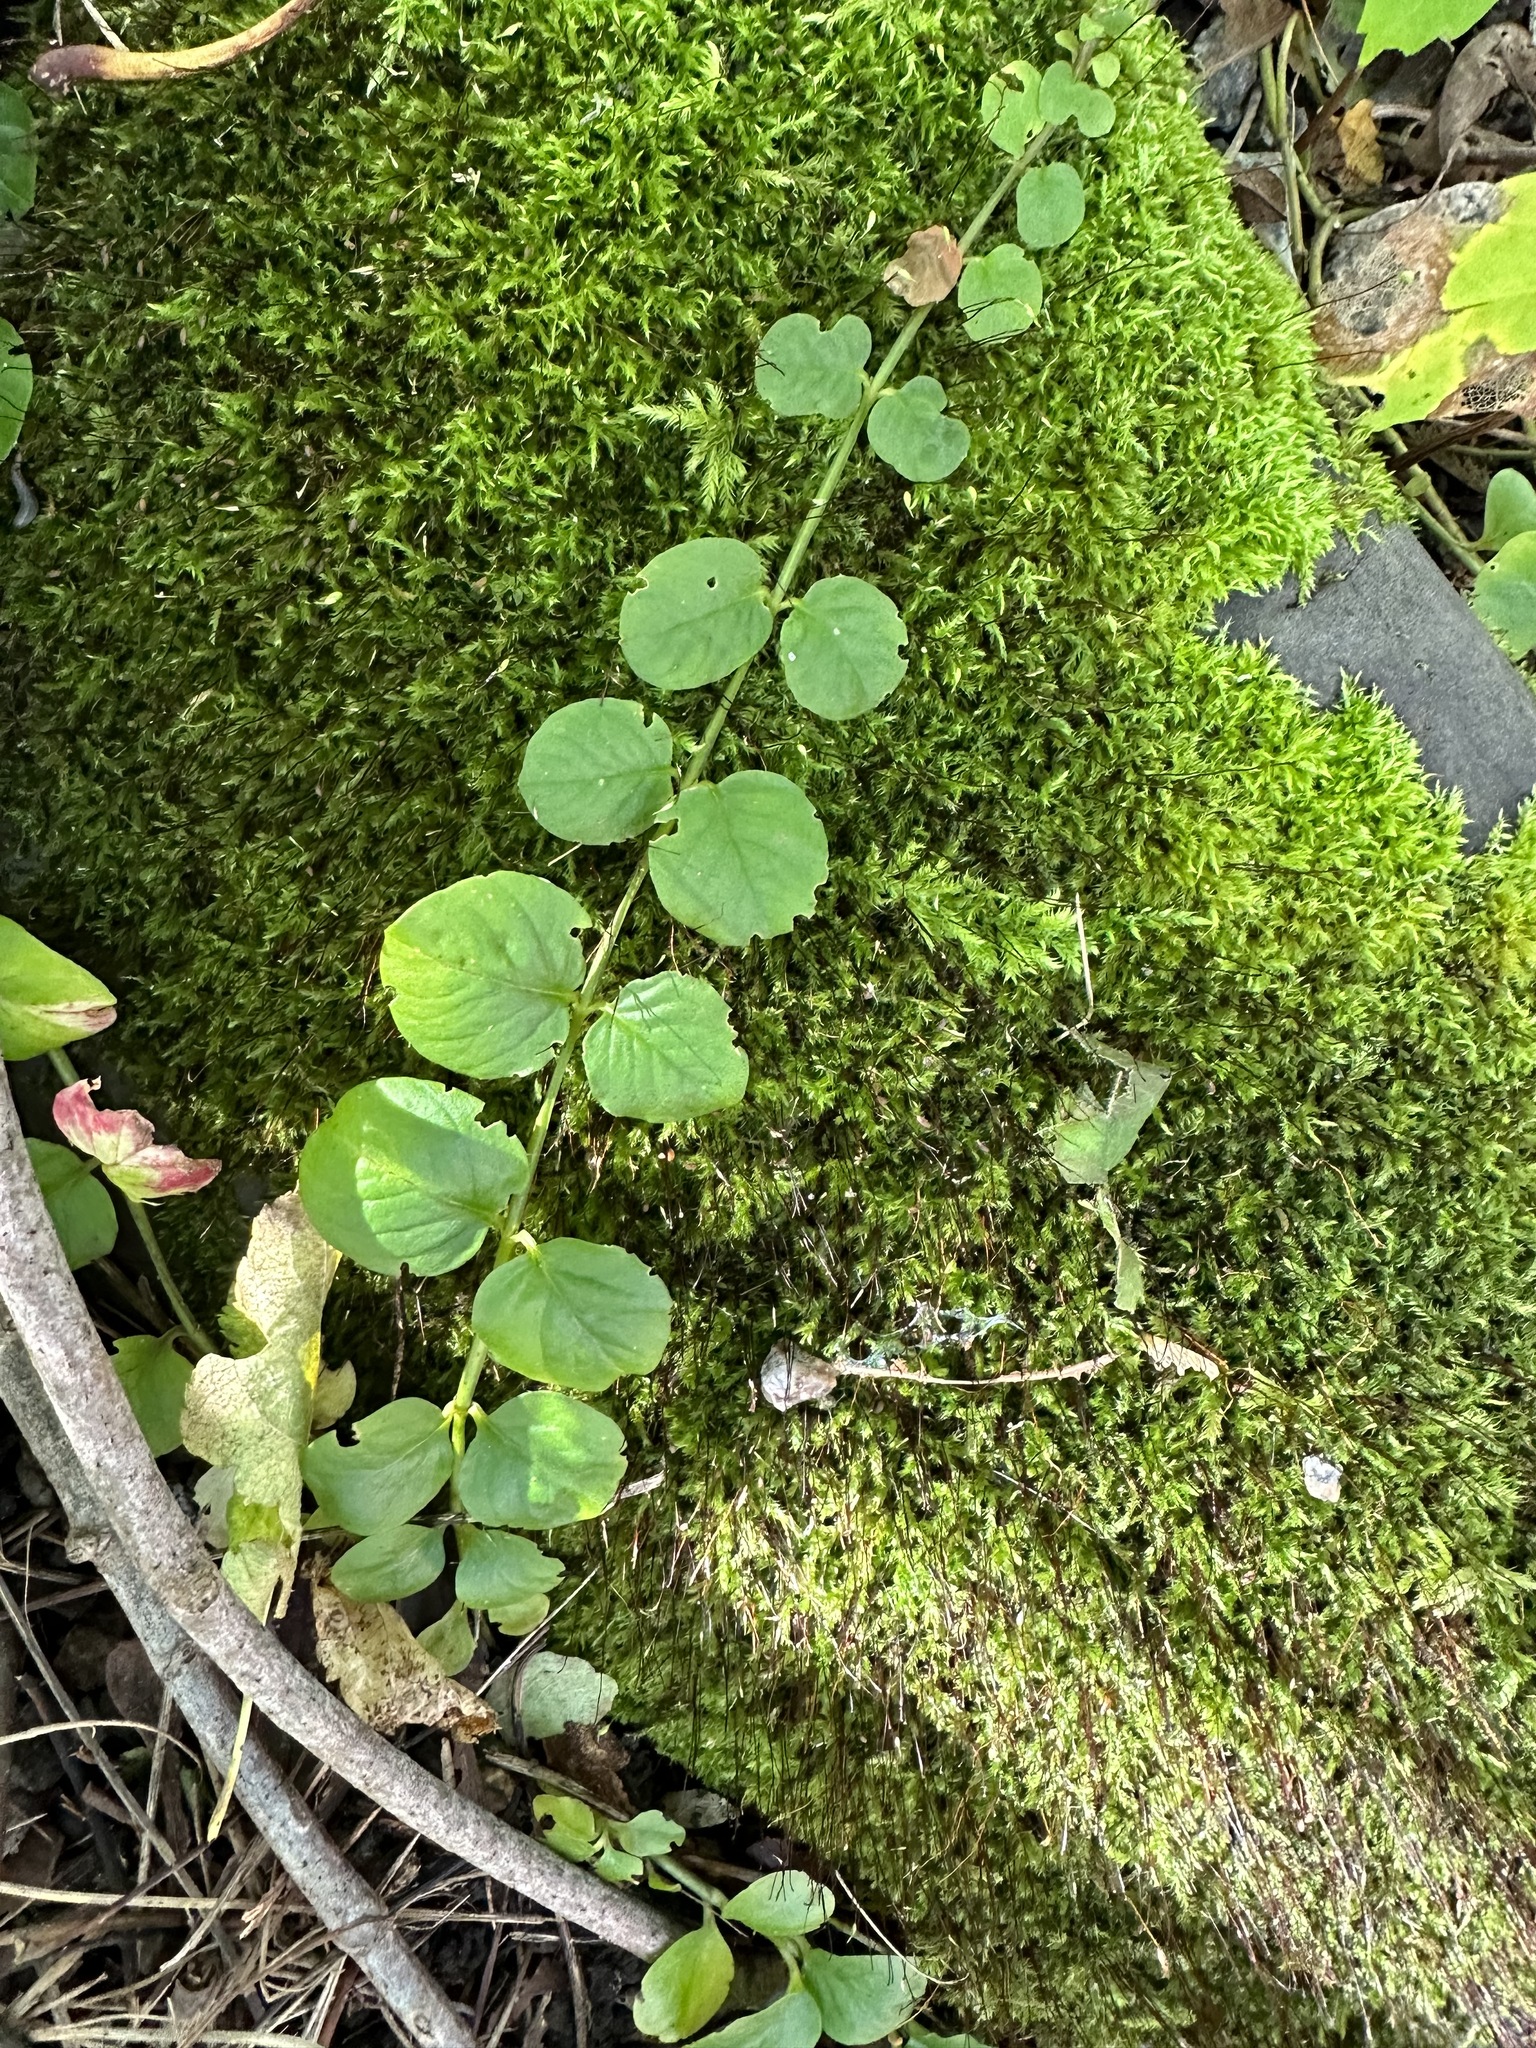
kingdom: Plantae
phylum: Tracheophyta
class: Magnoliopsida
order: Ericales
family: Primulaceae
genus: Lysimachia
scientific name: Lysimachia nummularia
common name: Moneywort
